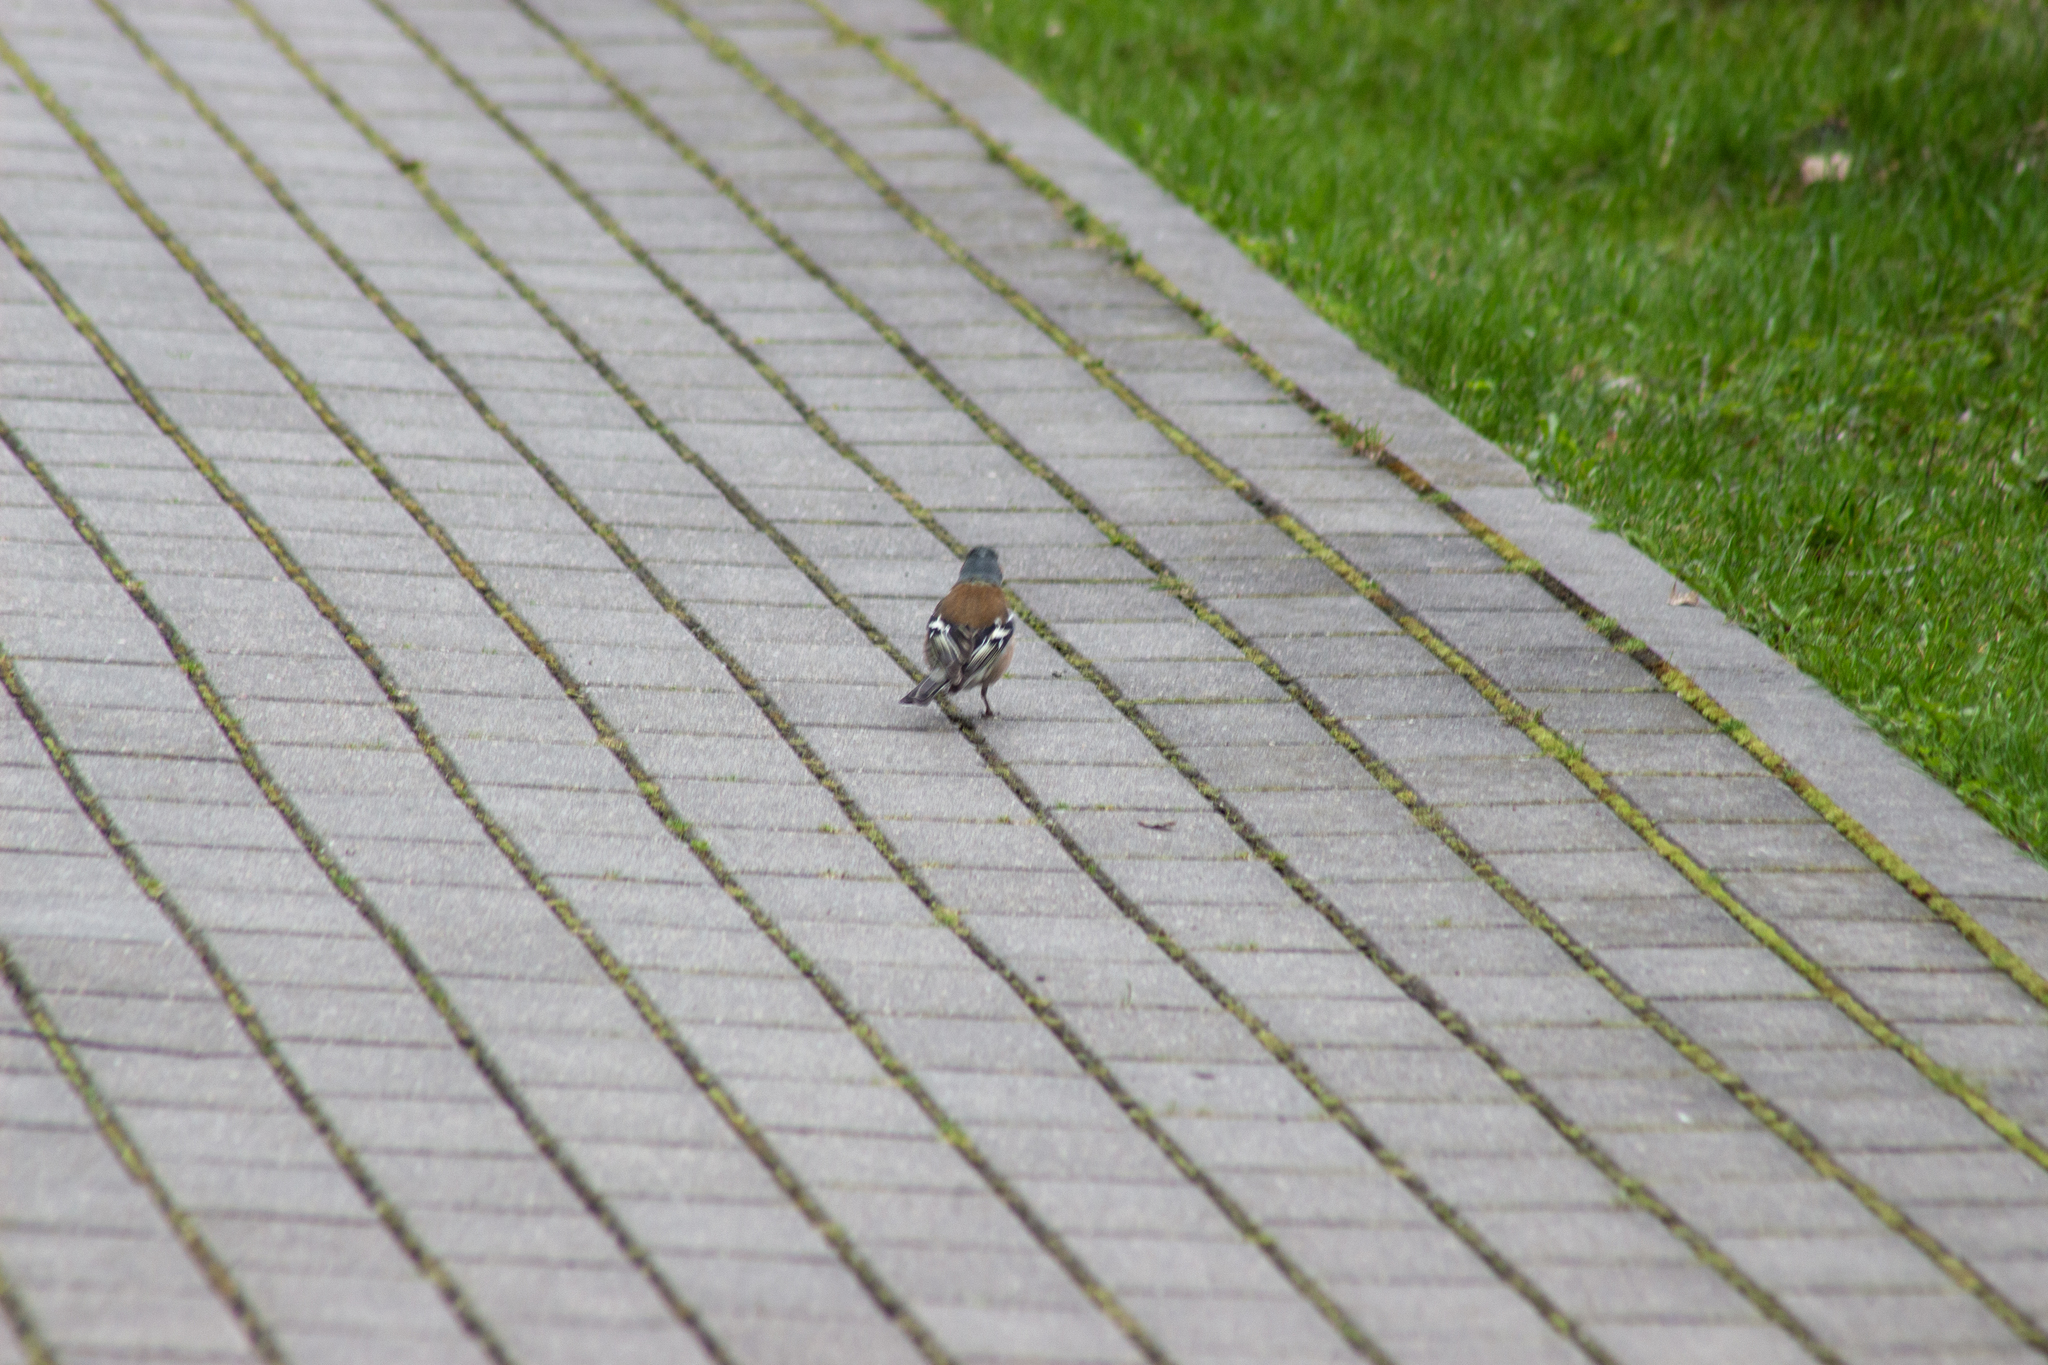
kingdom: Animalia
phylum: Chordata
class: Aves
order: Passeriformes
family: Fringillidae
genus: Fringilla
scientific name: Fringilla coelebs
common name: Common chaffinch
